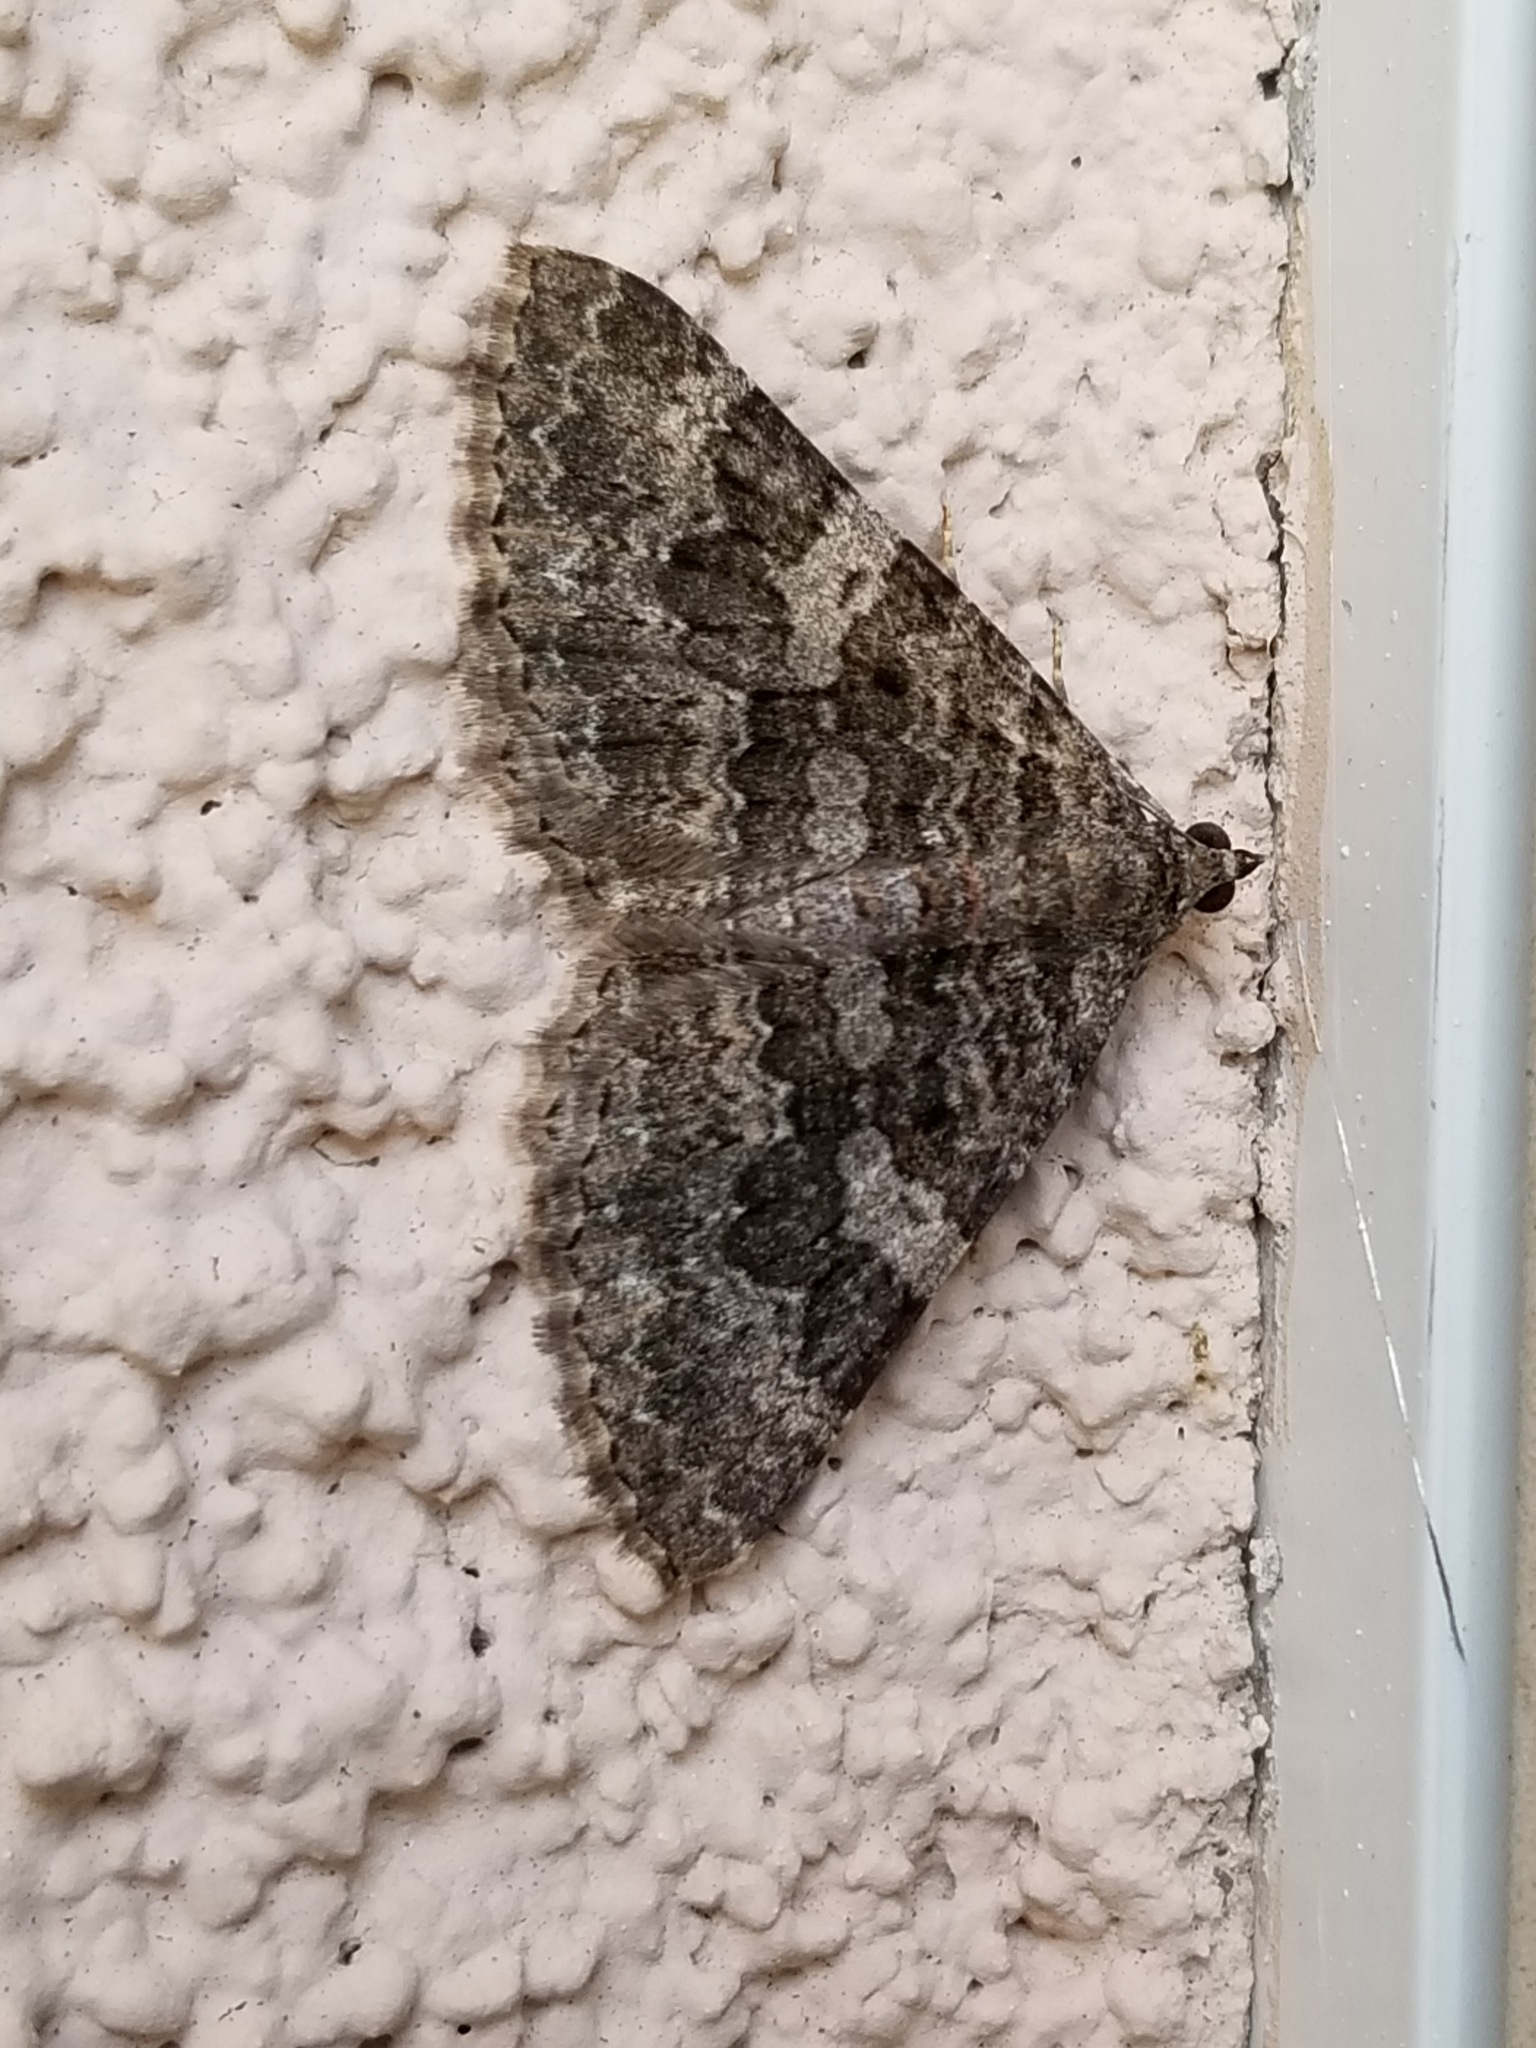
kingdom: Animalia
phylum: Arthropoda
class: Insecta
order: Lepidoptera
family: Geometridae
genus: Archirhoe
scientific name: Archirhoe neomexicana
